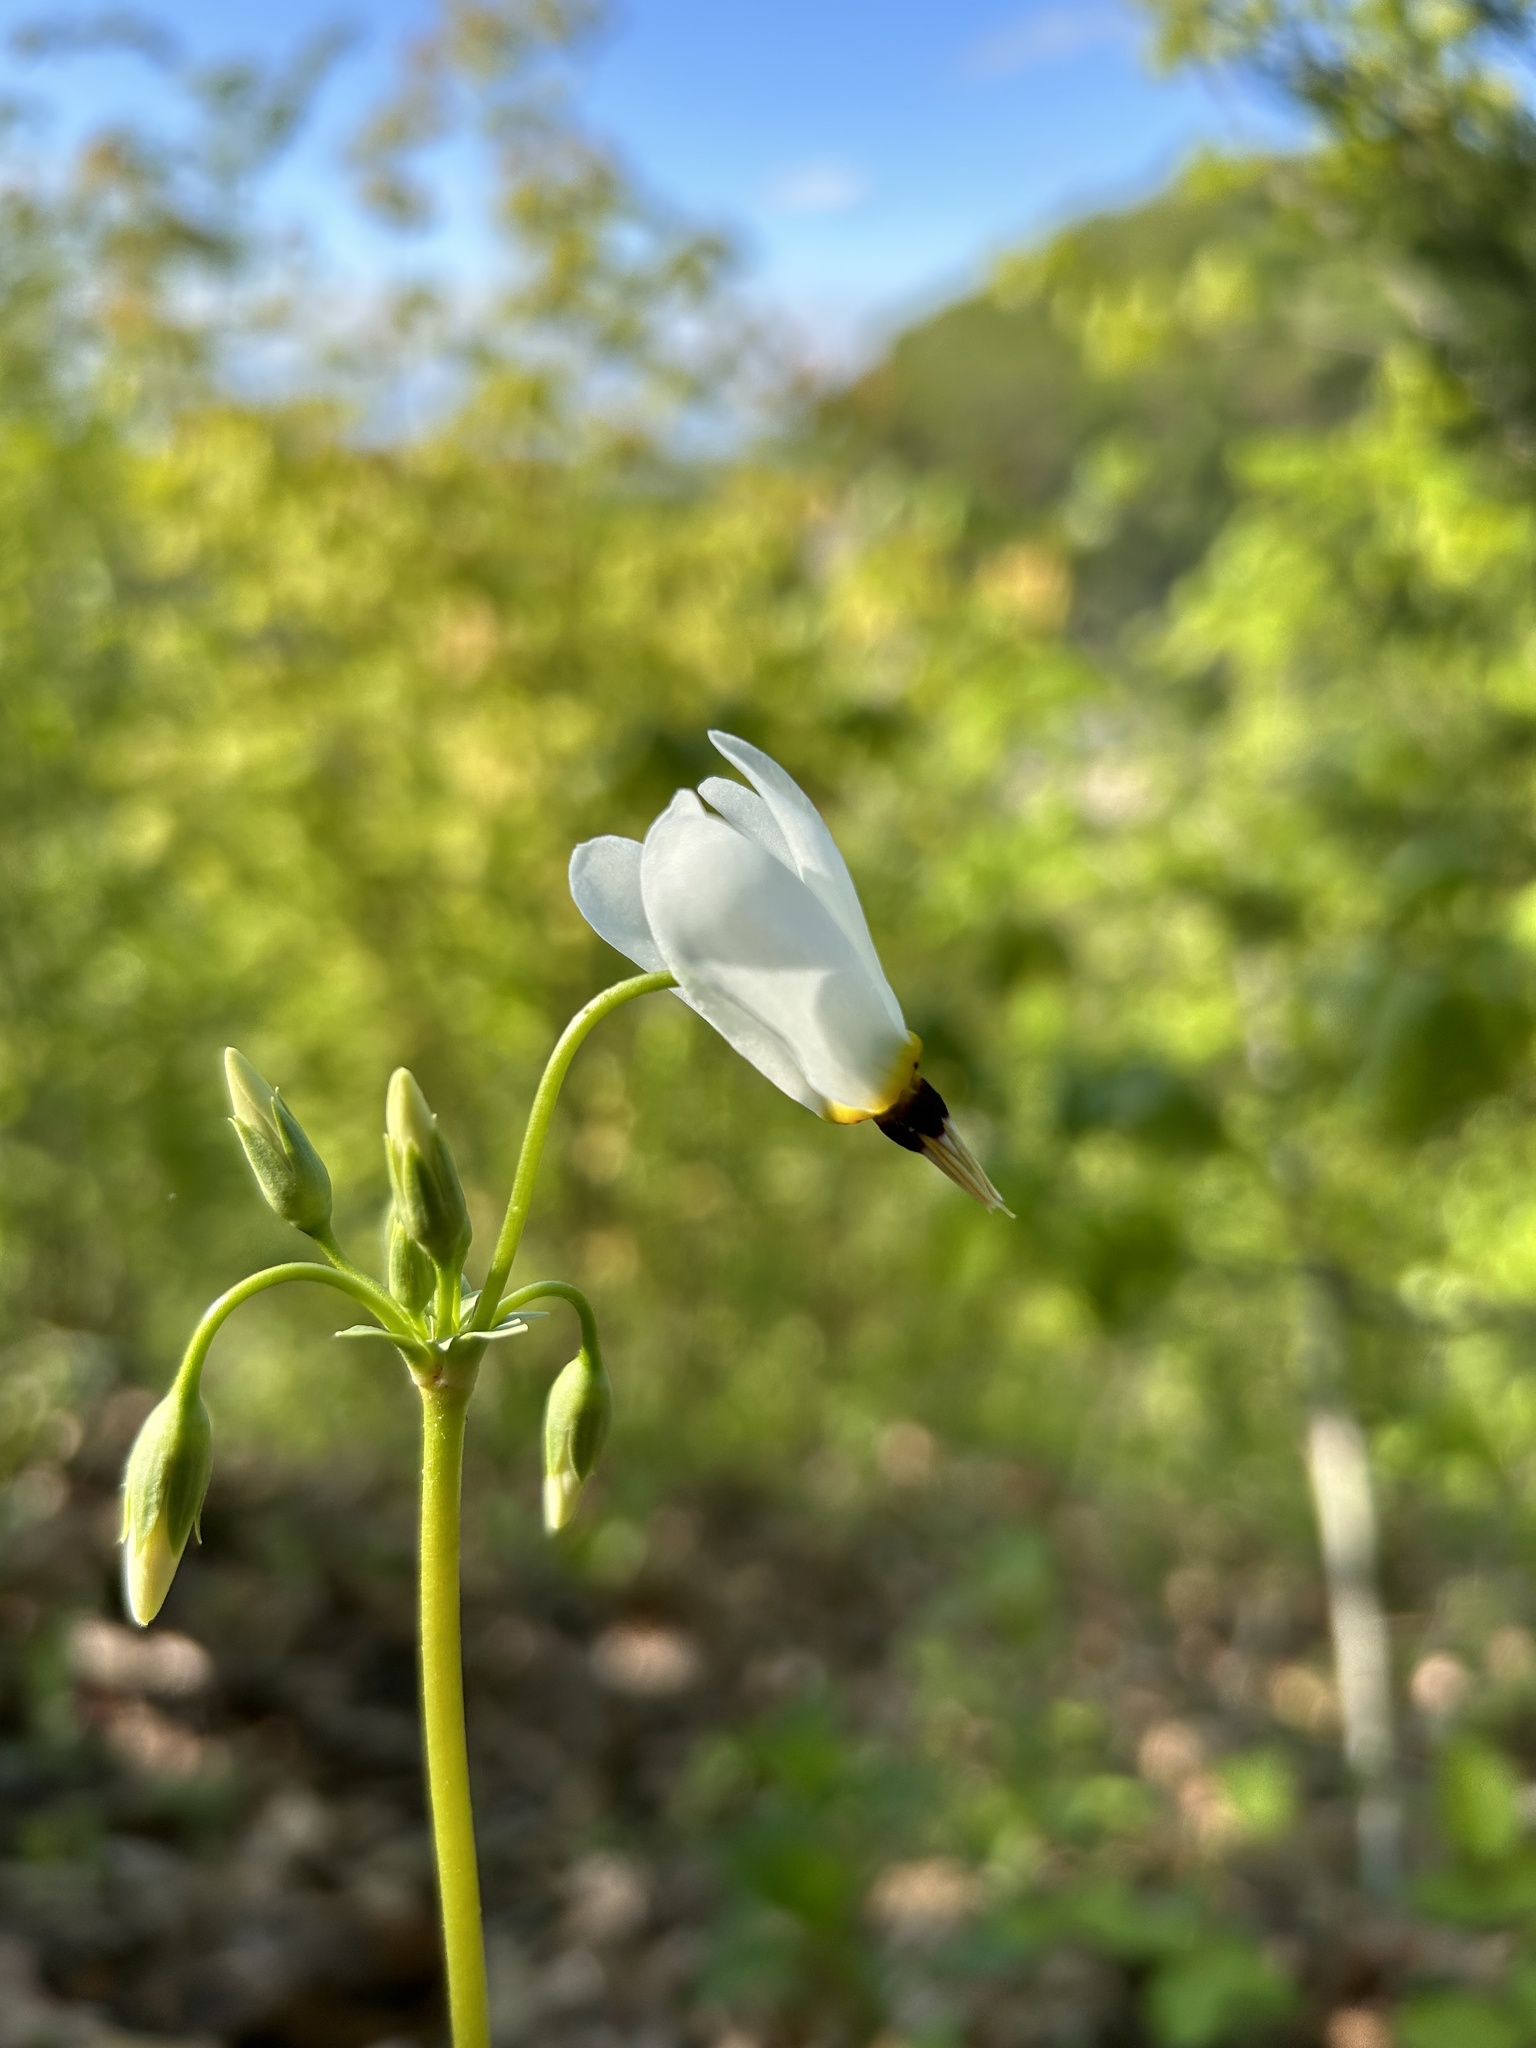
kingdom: Plantae
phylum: Tracheophyta
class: Magnoliopsida
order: Ericales
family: Primulaceae
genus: Dodecatheon
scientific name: Dodecatheon meadia
